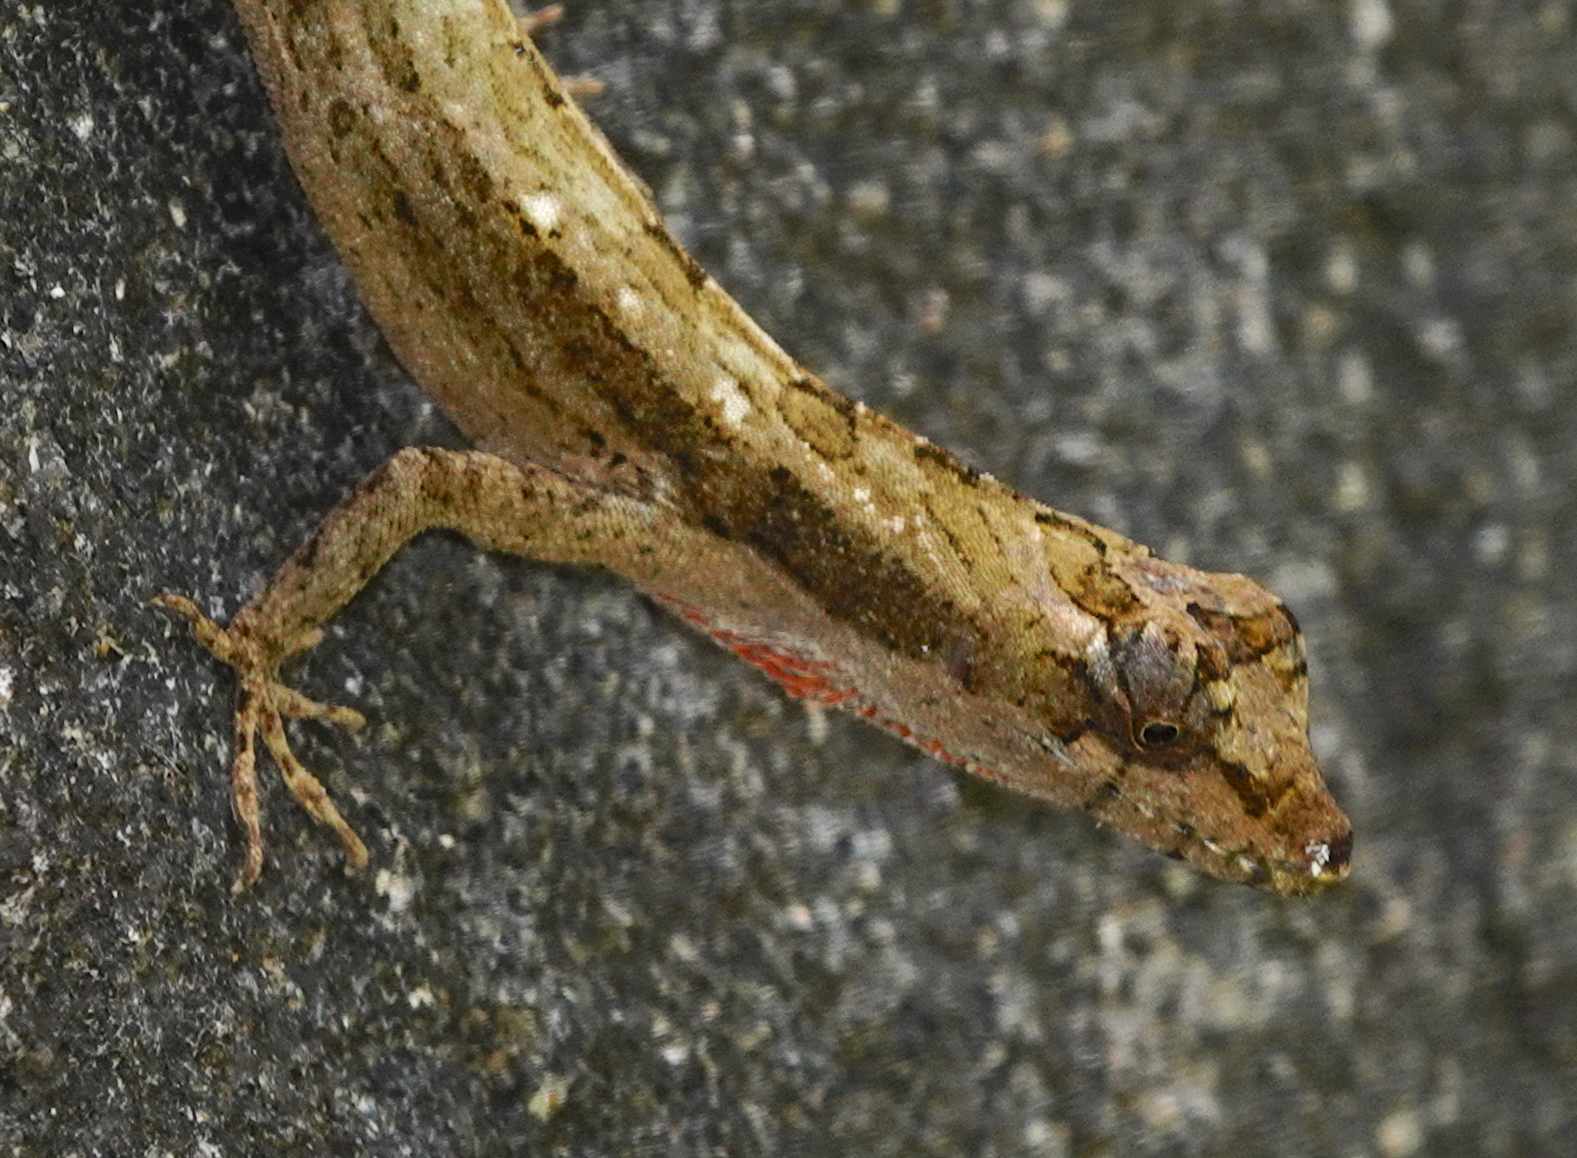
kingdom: Animalia
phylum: Chordata
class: Squamata
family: Dactyloidae
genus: Anolis
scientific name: Anolis lemurinus
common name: Ghost anole
